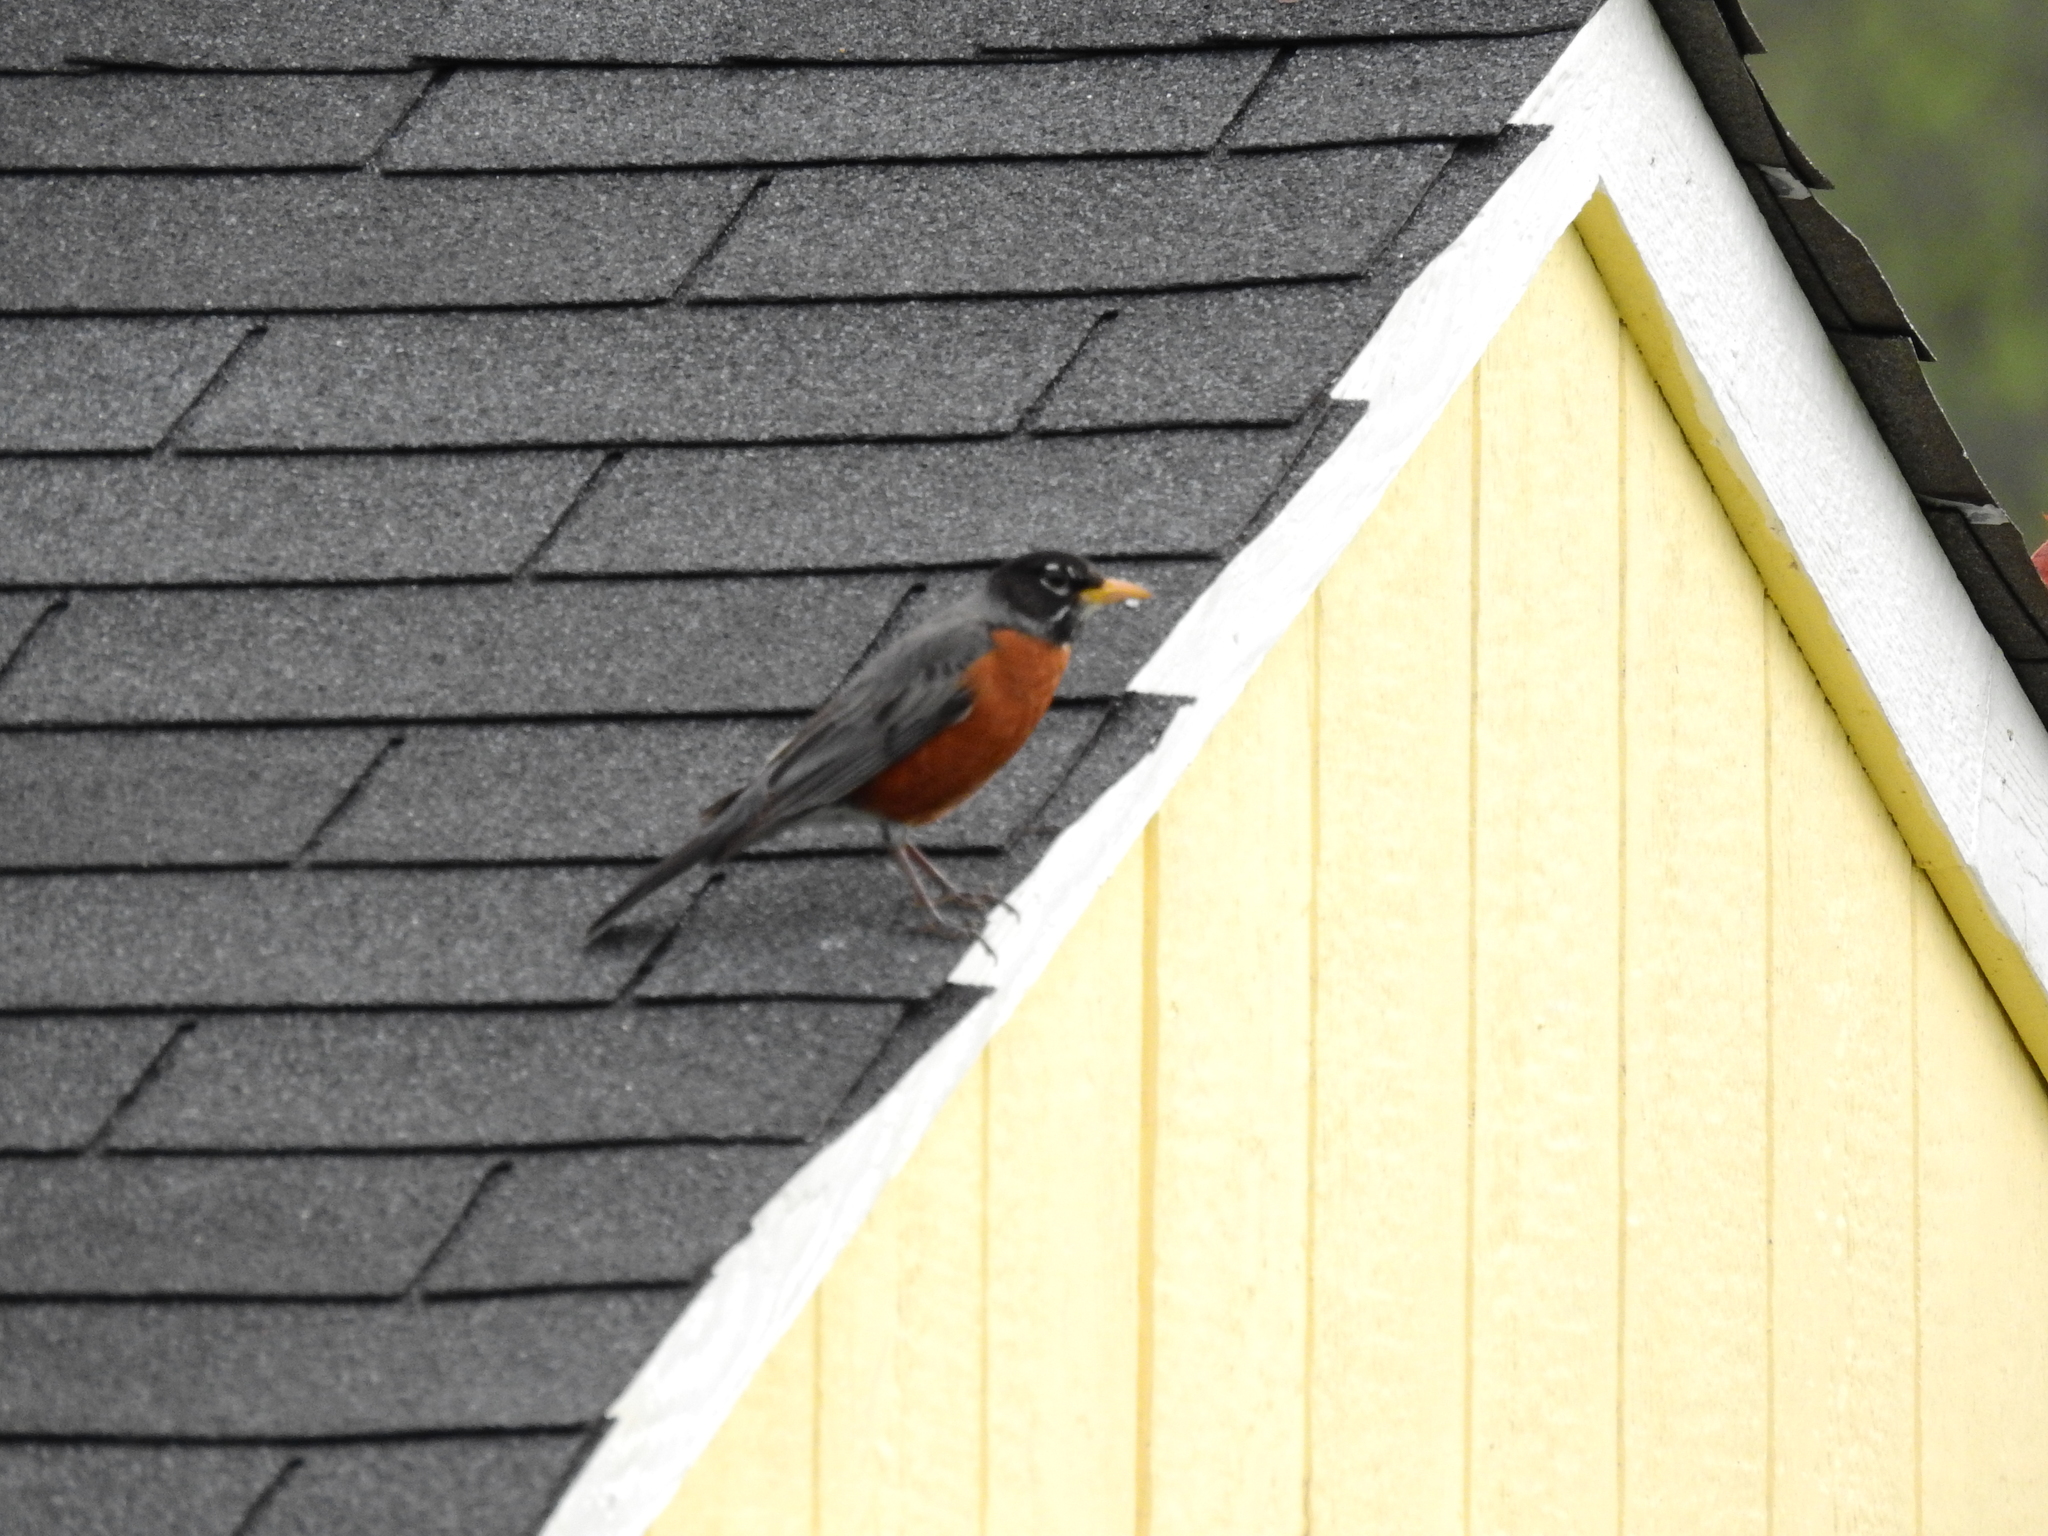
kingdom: Animalia
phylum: Chordata
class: Aves
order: Passeriformes
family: Turdidae
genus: Turdus
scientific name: Turdus migratorius
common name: American robin
